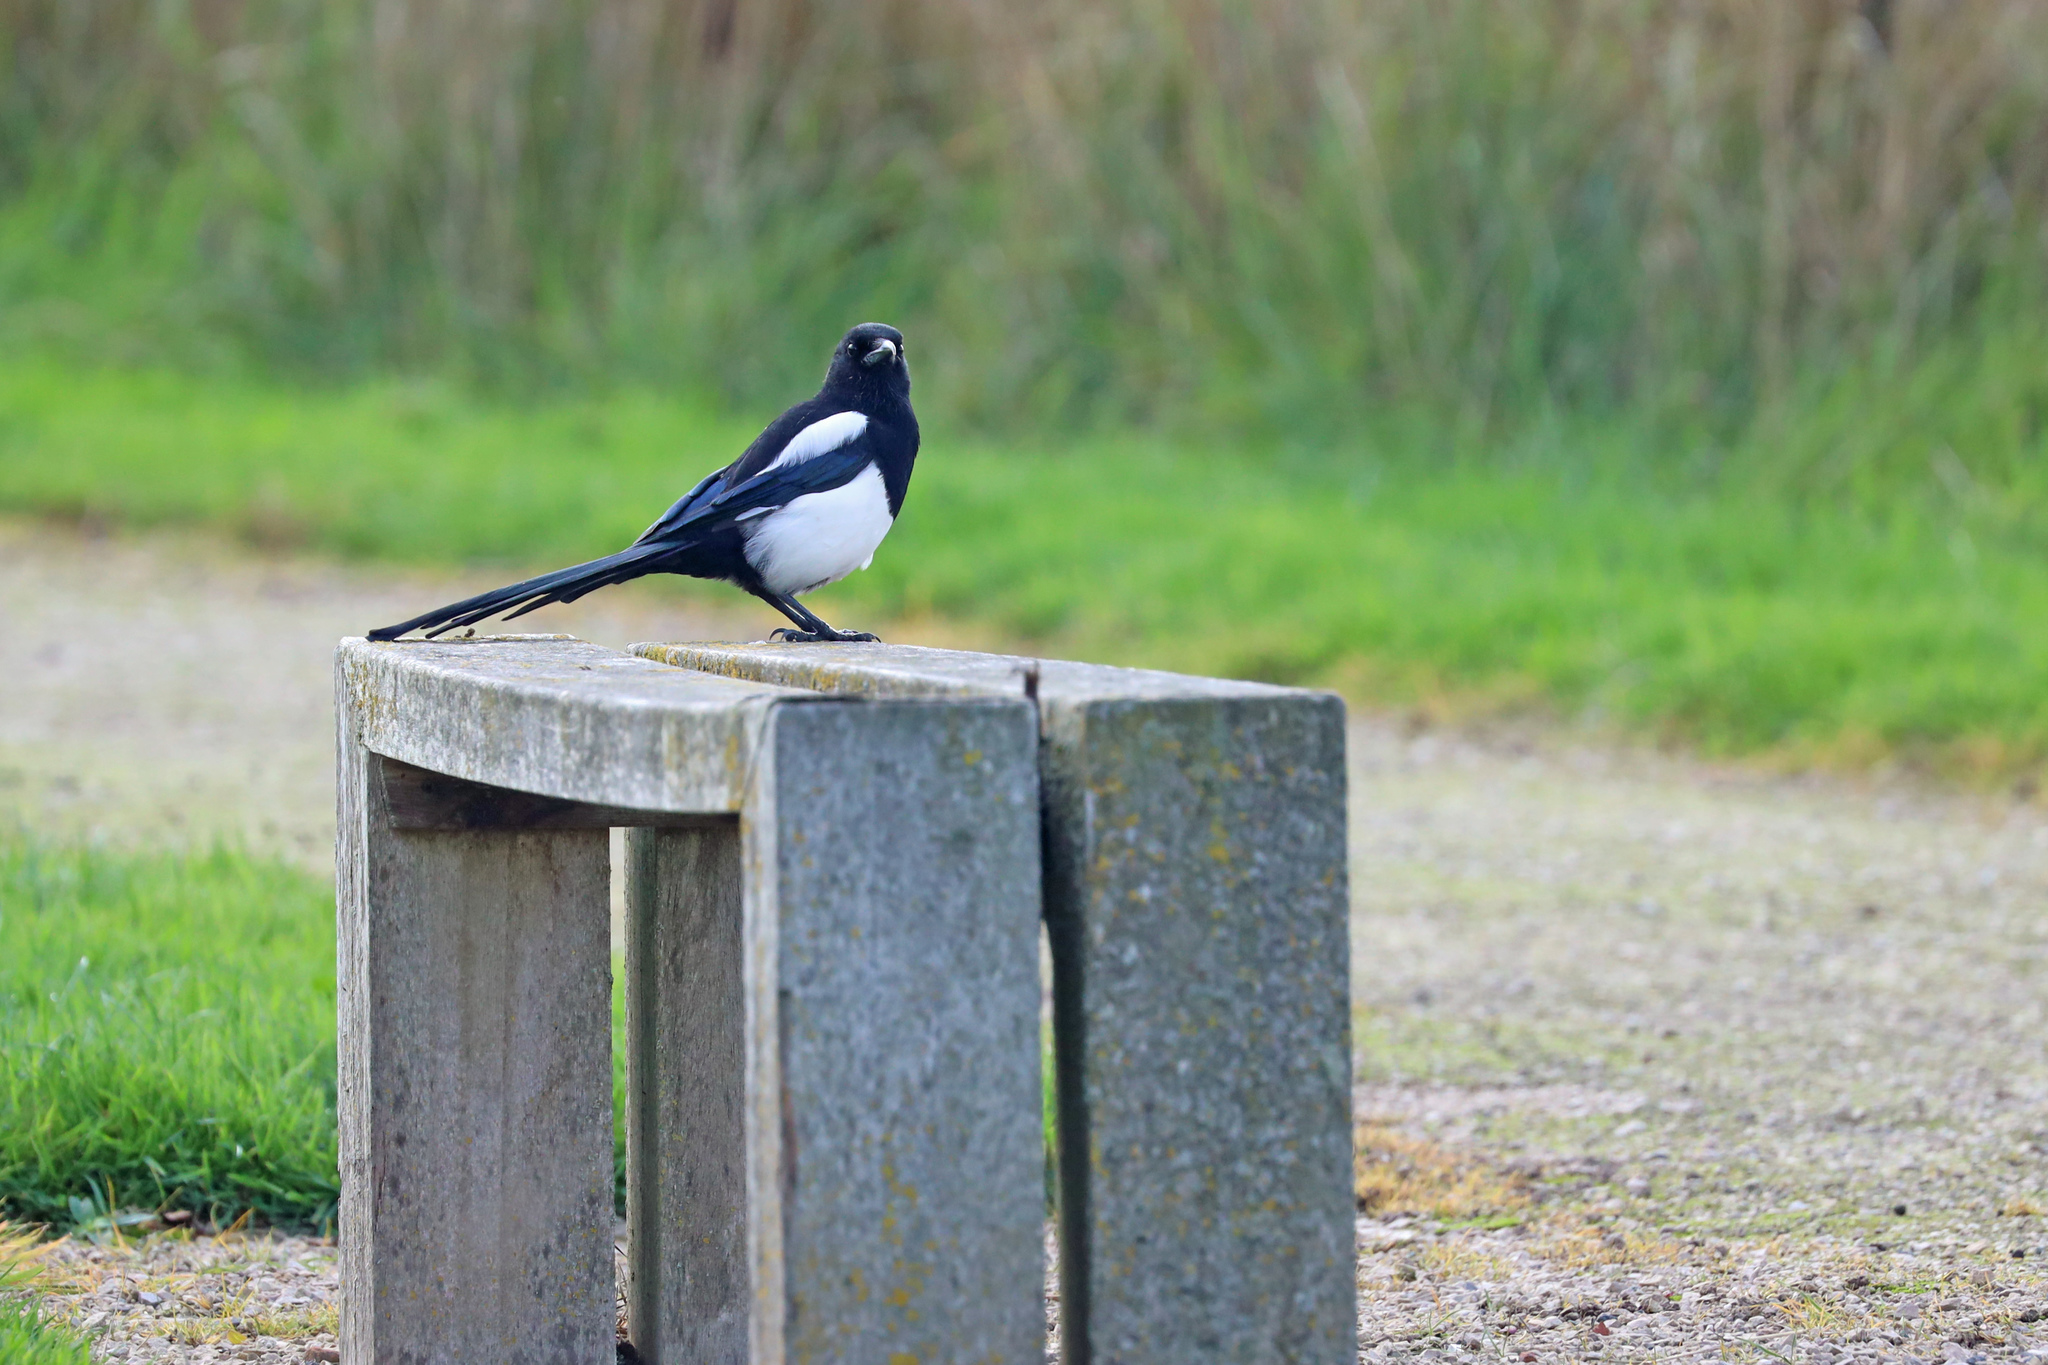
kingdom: Animalia
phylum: Chordata
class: Aves
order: Passeriformes
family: Corvidae
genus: Pica
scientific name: Pica pica
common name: Eurasian magpie
